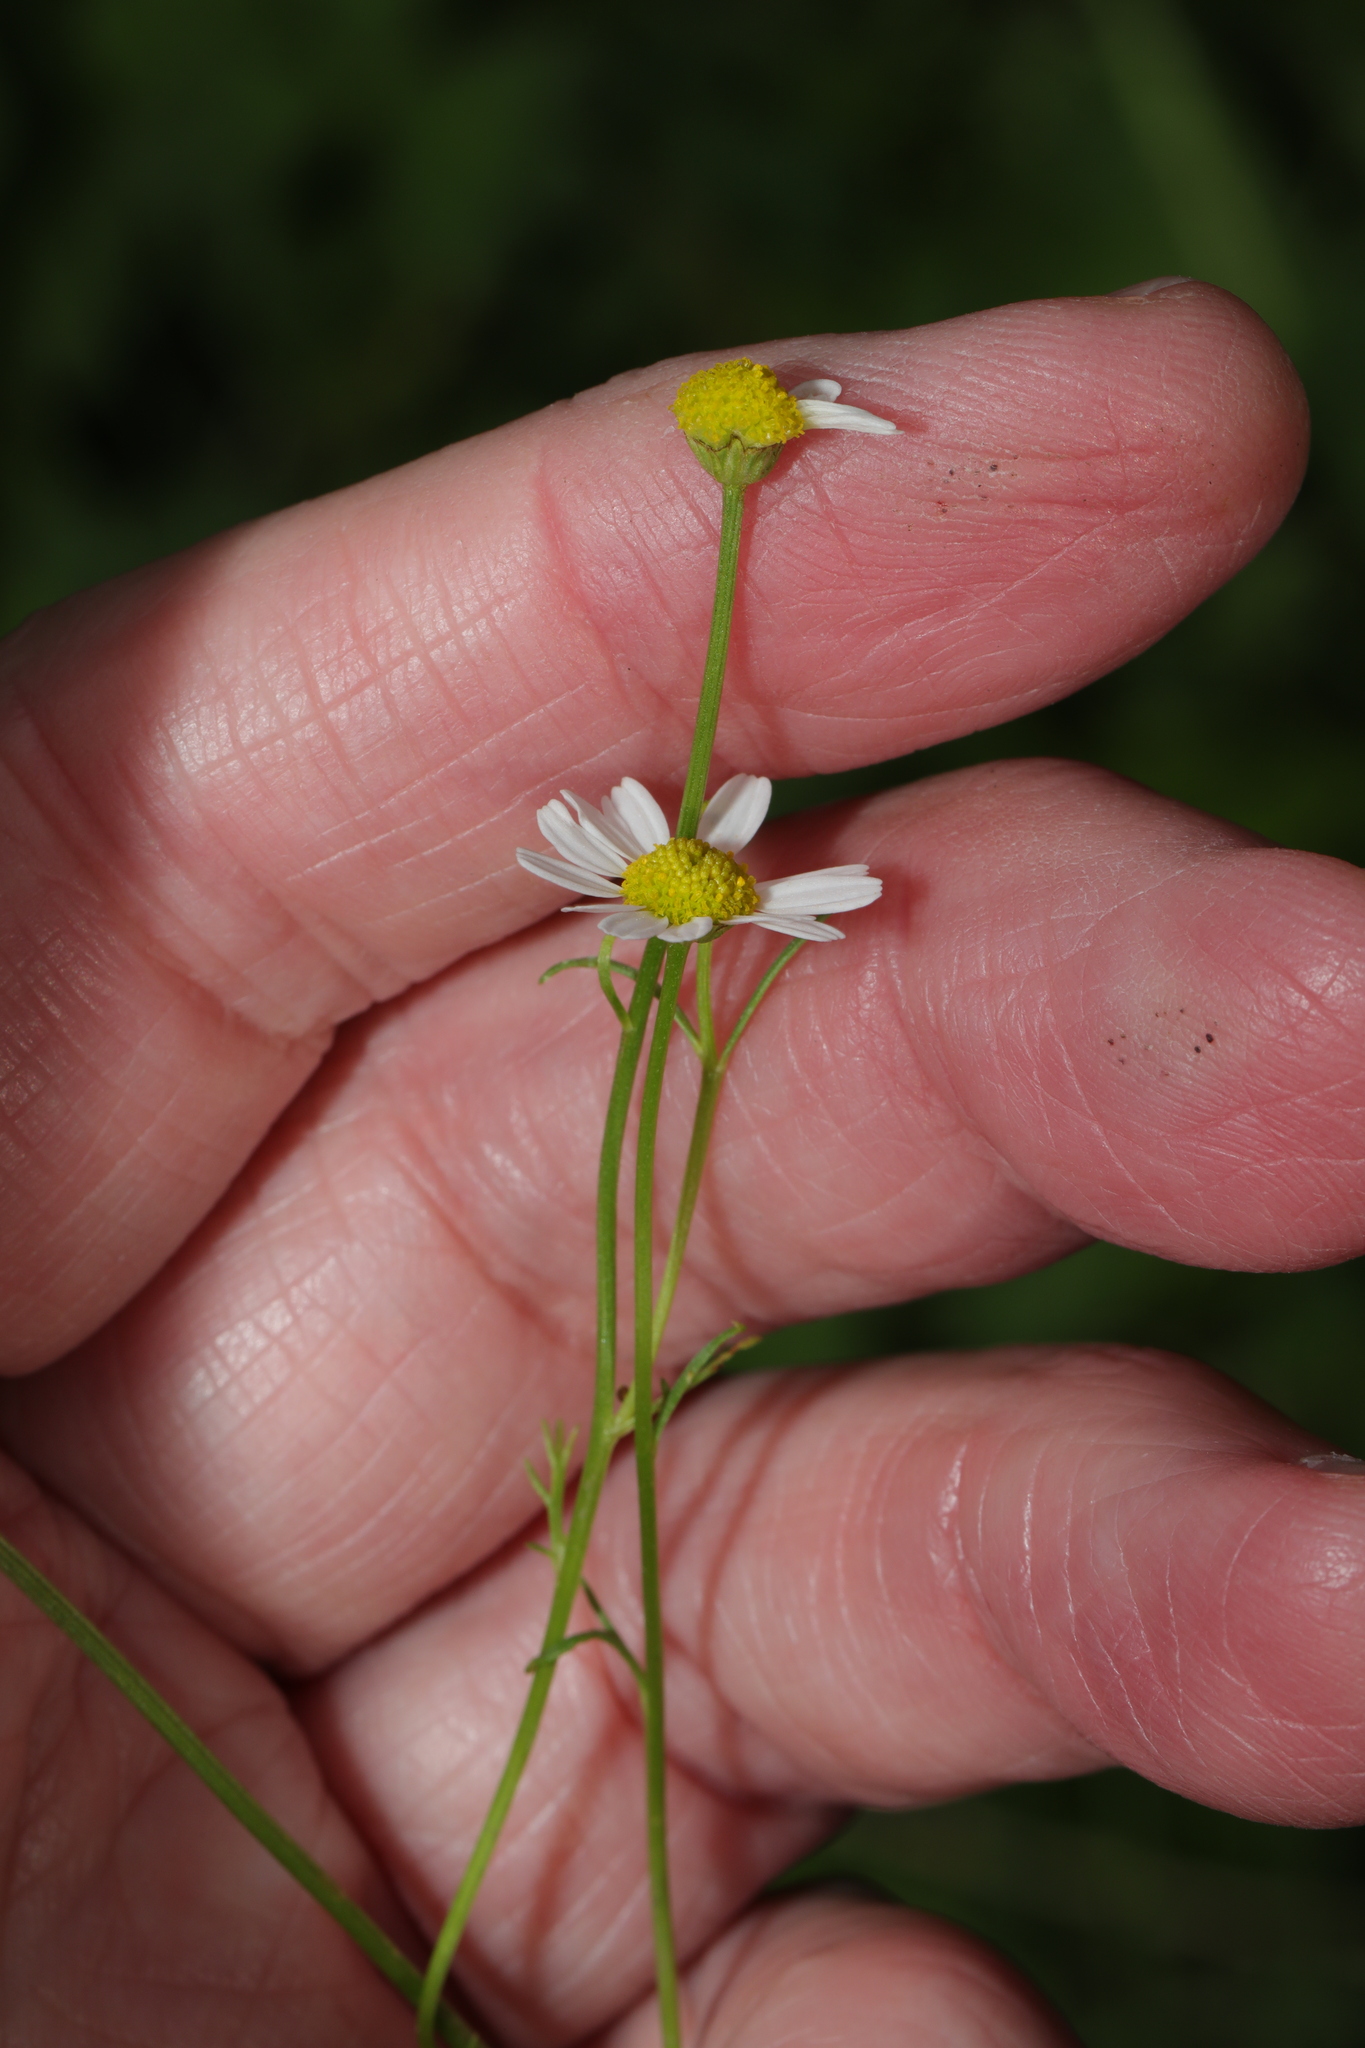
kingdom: Plantae
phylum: Tracheophyta
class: Magnoliopsida
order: Asterales
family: Asteraceae
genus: Matricaria
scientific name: Matricaria chamomilla
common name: Scented mayweed
